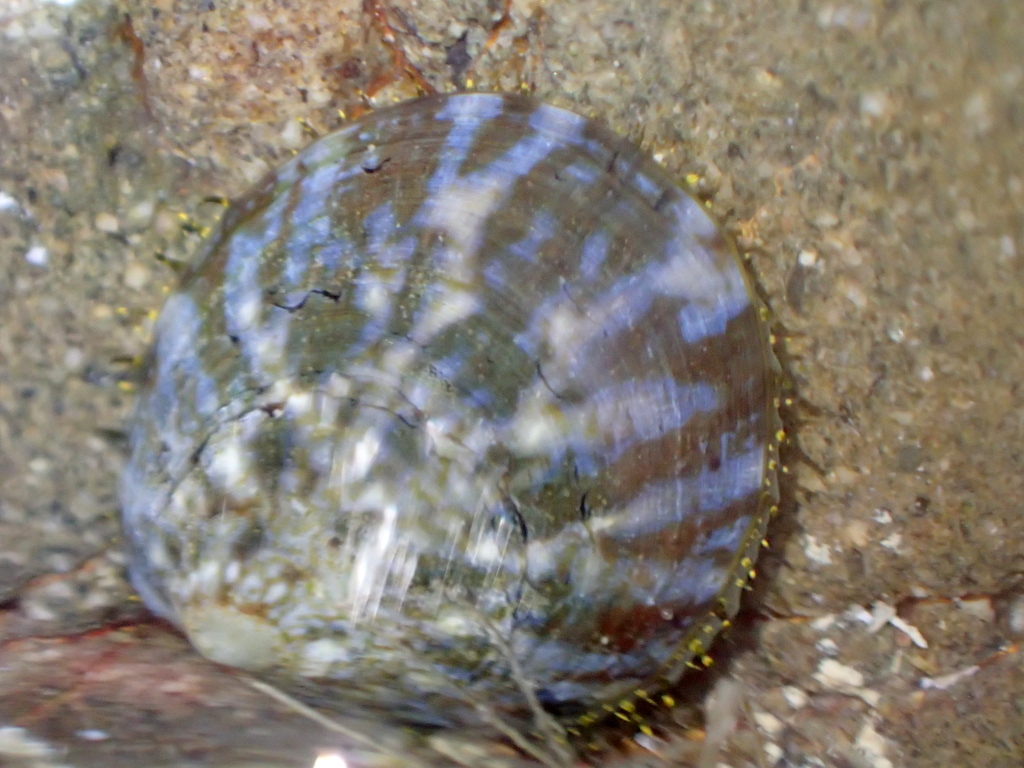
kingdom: Animalia
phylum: Mollusca
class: Gastropoda
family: Nacellidae
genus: Cellana
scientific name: Cellana radians
